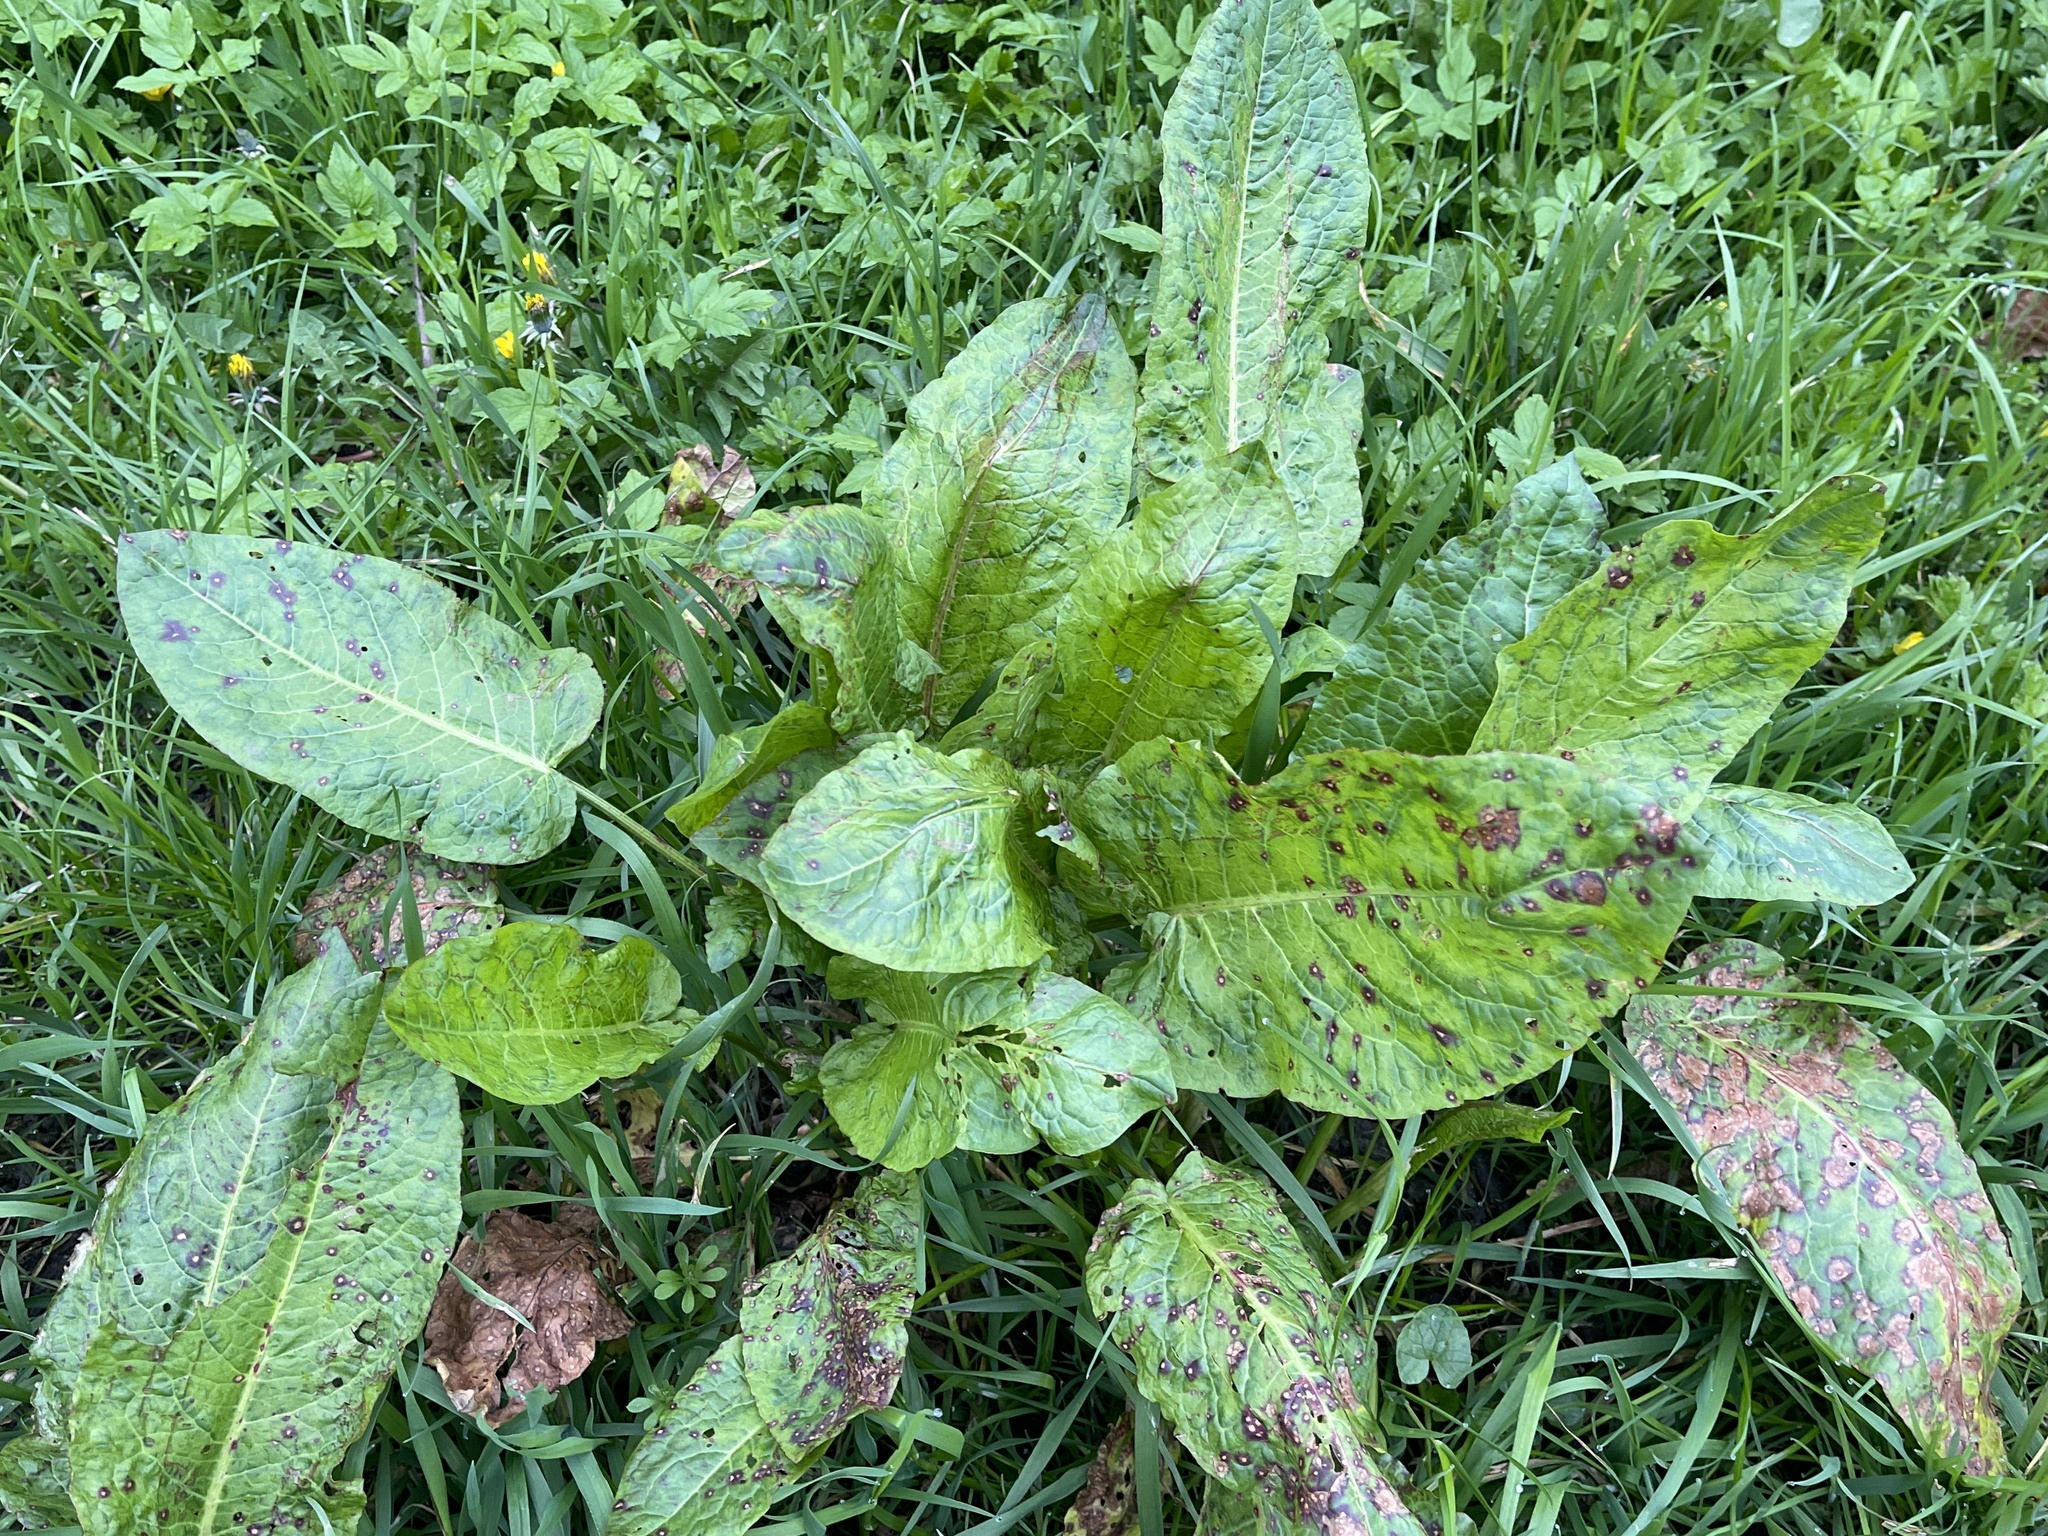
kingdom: Plantae
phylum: Tracheophyta
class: Magnoliopsida
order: Caryophyllales
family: Polygonaceae
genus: Rumex
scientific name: Rumex obtusifolius
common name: Bitter dock
